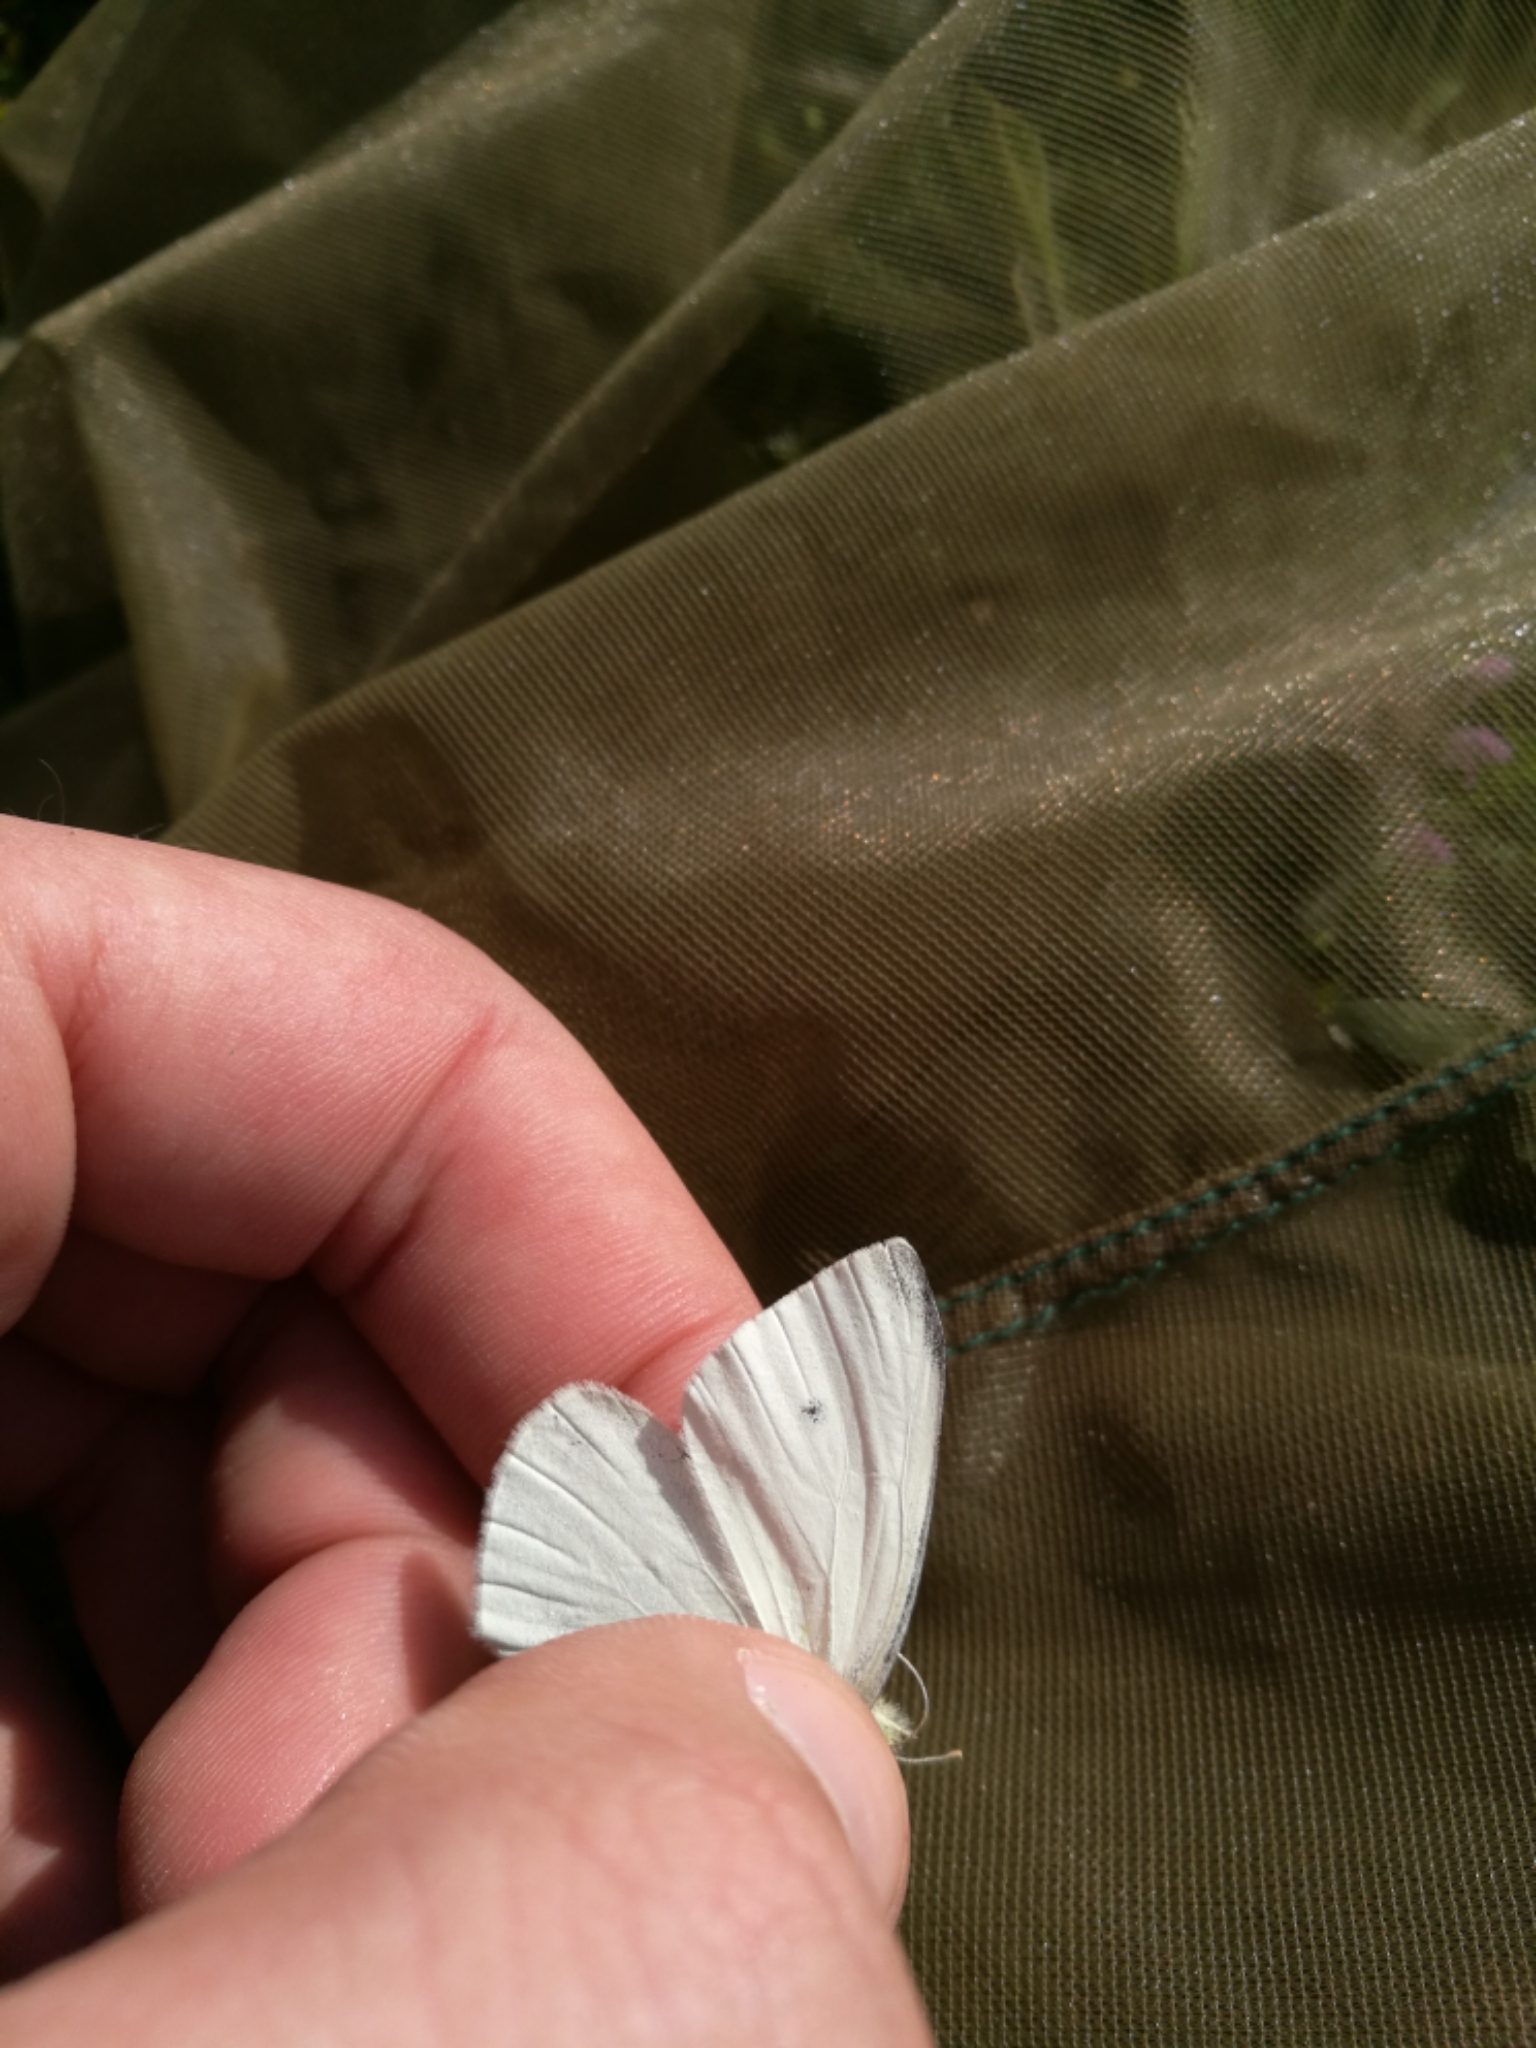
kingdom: Animalia
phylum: Arthropoda
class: Insecta
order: Lepidoptera
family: Pieridae
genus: Pieris
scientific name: Pieris rapae
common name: Small white
